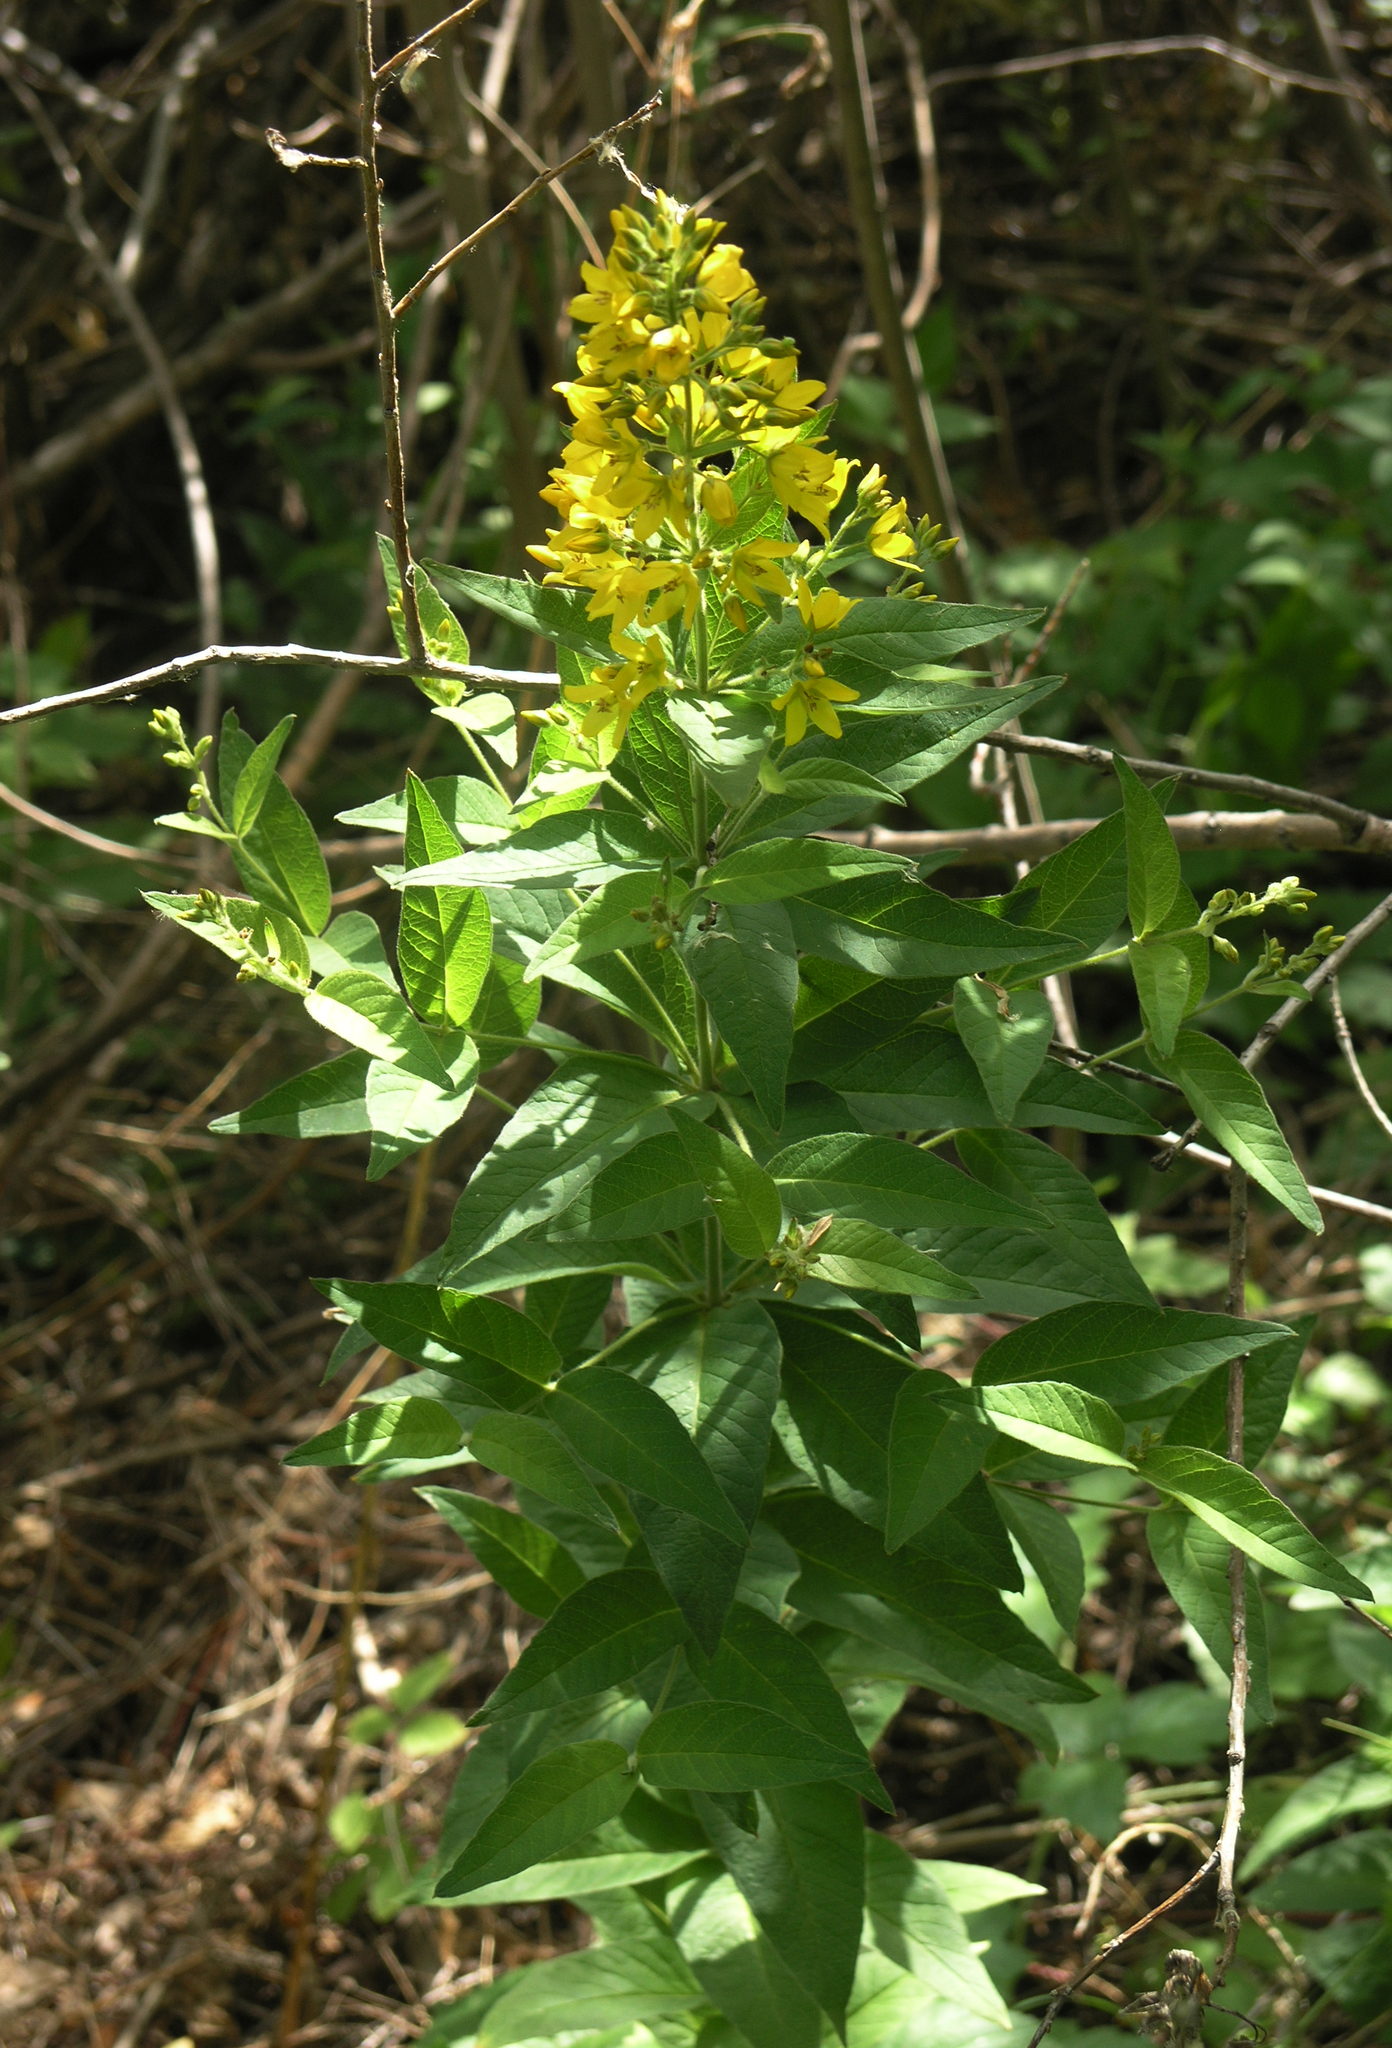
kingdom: Plantae
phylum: Tracheophyta
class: Magnoliopsida
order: Ericales
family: Primulaceae
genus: Lysimachia
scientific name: Lysimachia vulgaris
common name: Yellow loosestrife
